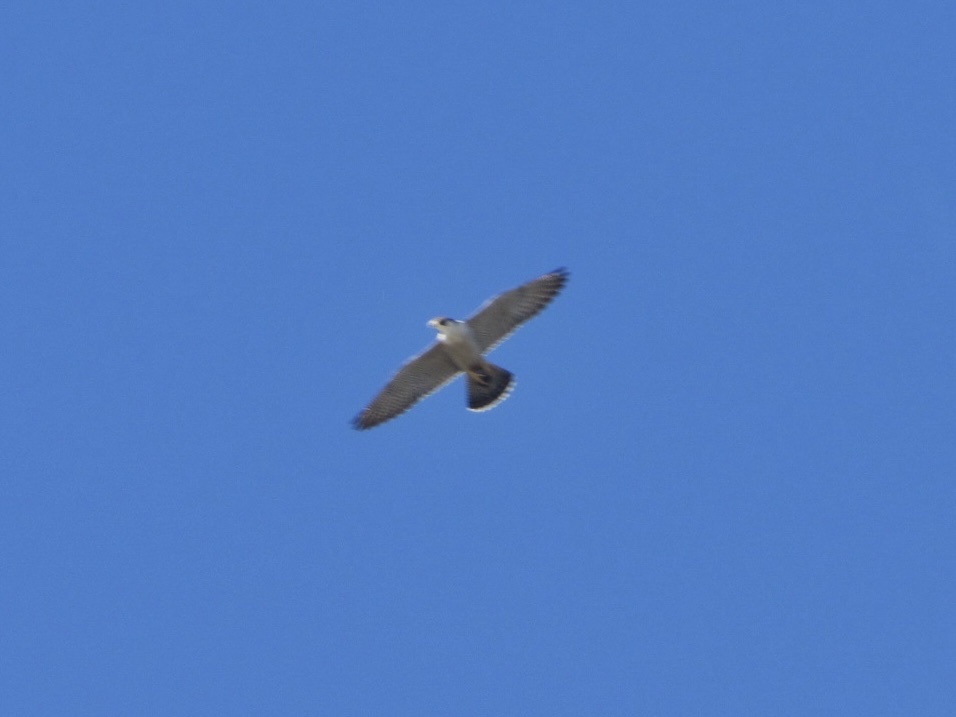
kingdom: Animalia
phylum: Chordata
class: Aves
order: Falconiformes
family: Falconidae
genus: Falco
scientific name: Falco peregrinus
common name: Peregrine falcon
